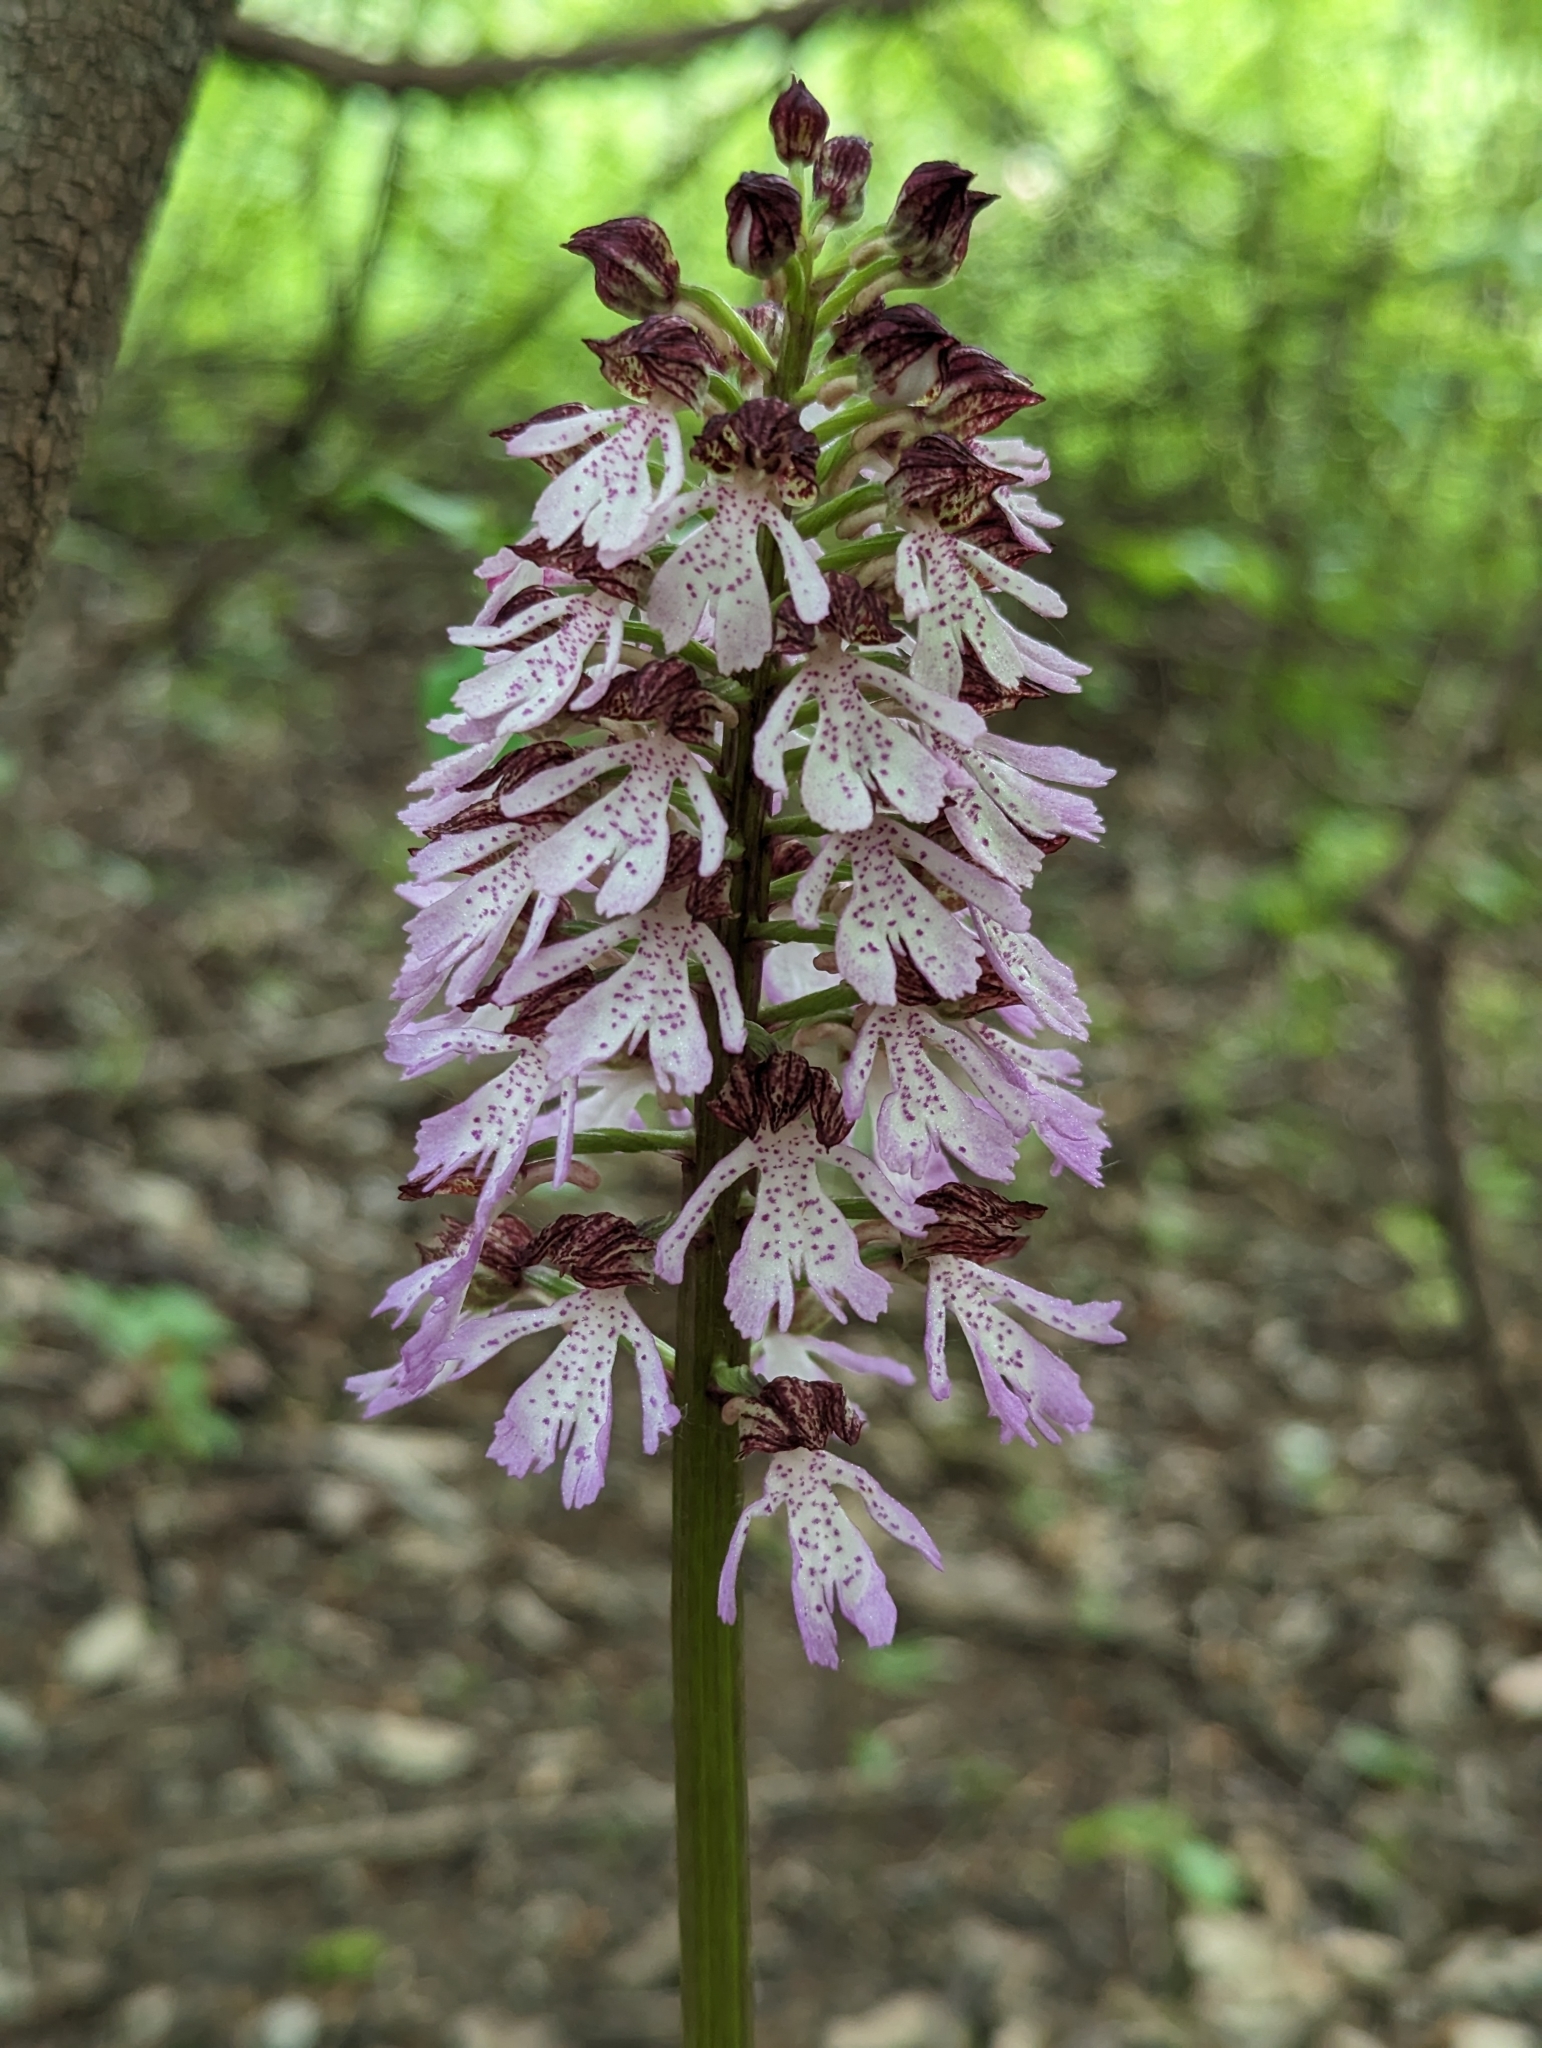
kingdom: Plantae
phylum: Tracheophyta
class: Liliopsida
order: Asparagales
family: Orchidaceae
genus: Orchis
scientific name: Orchis purpurea
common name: Lady orchid
